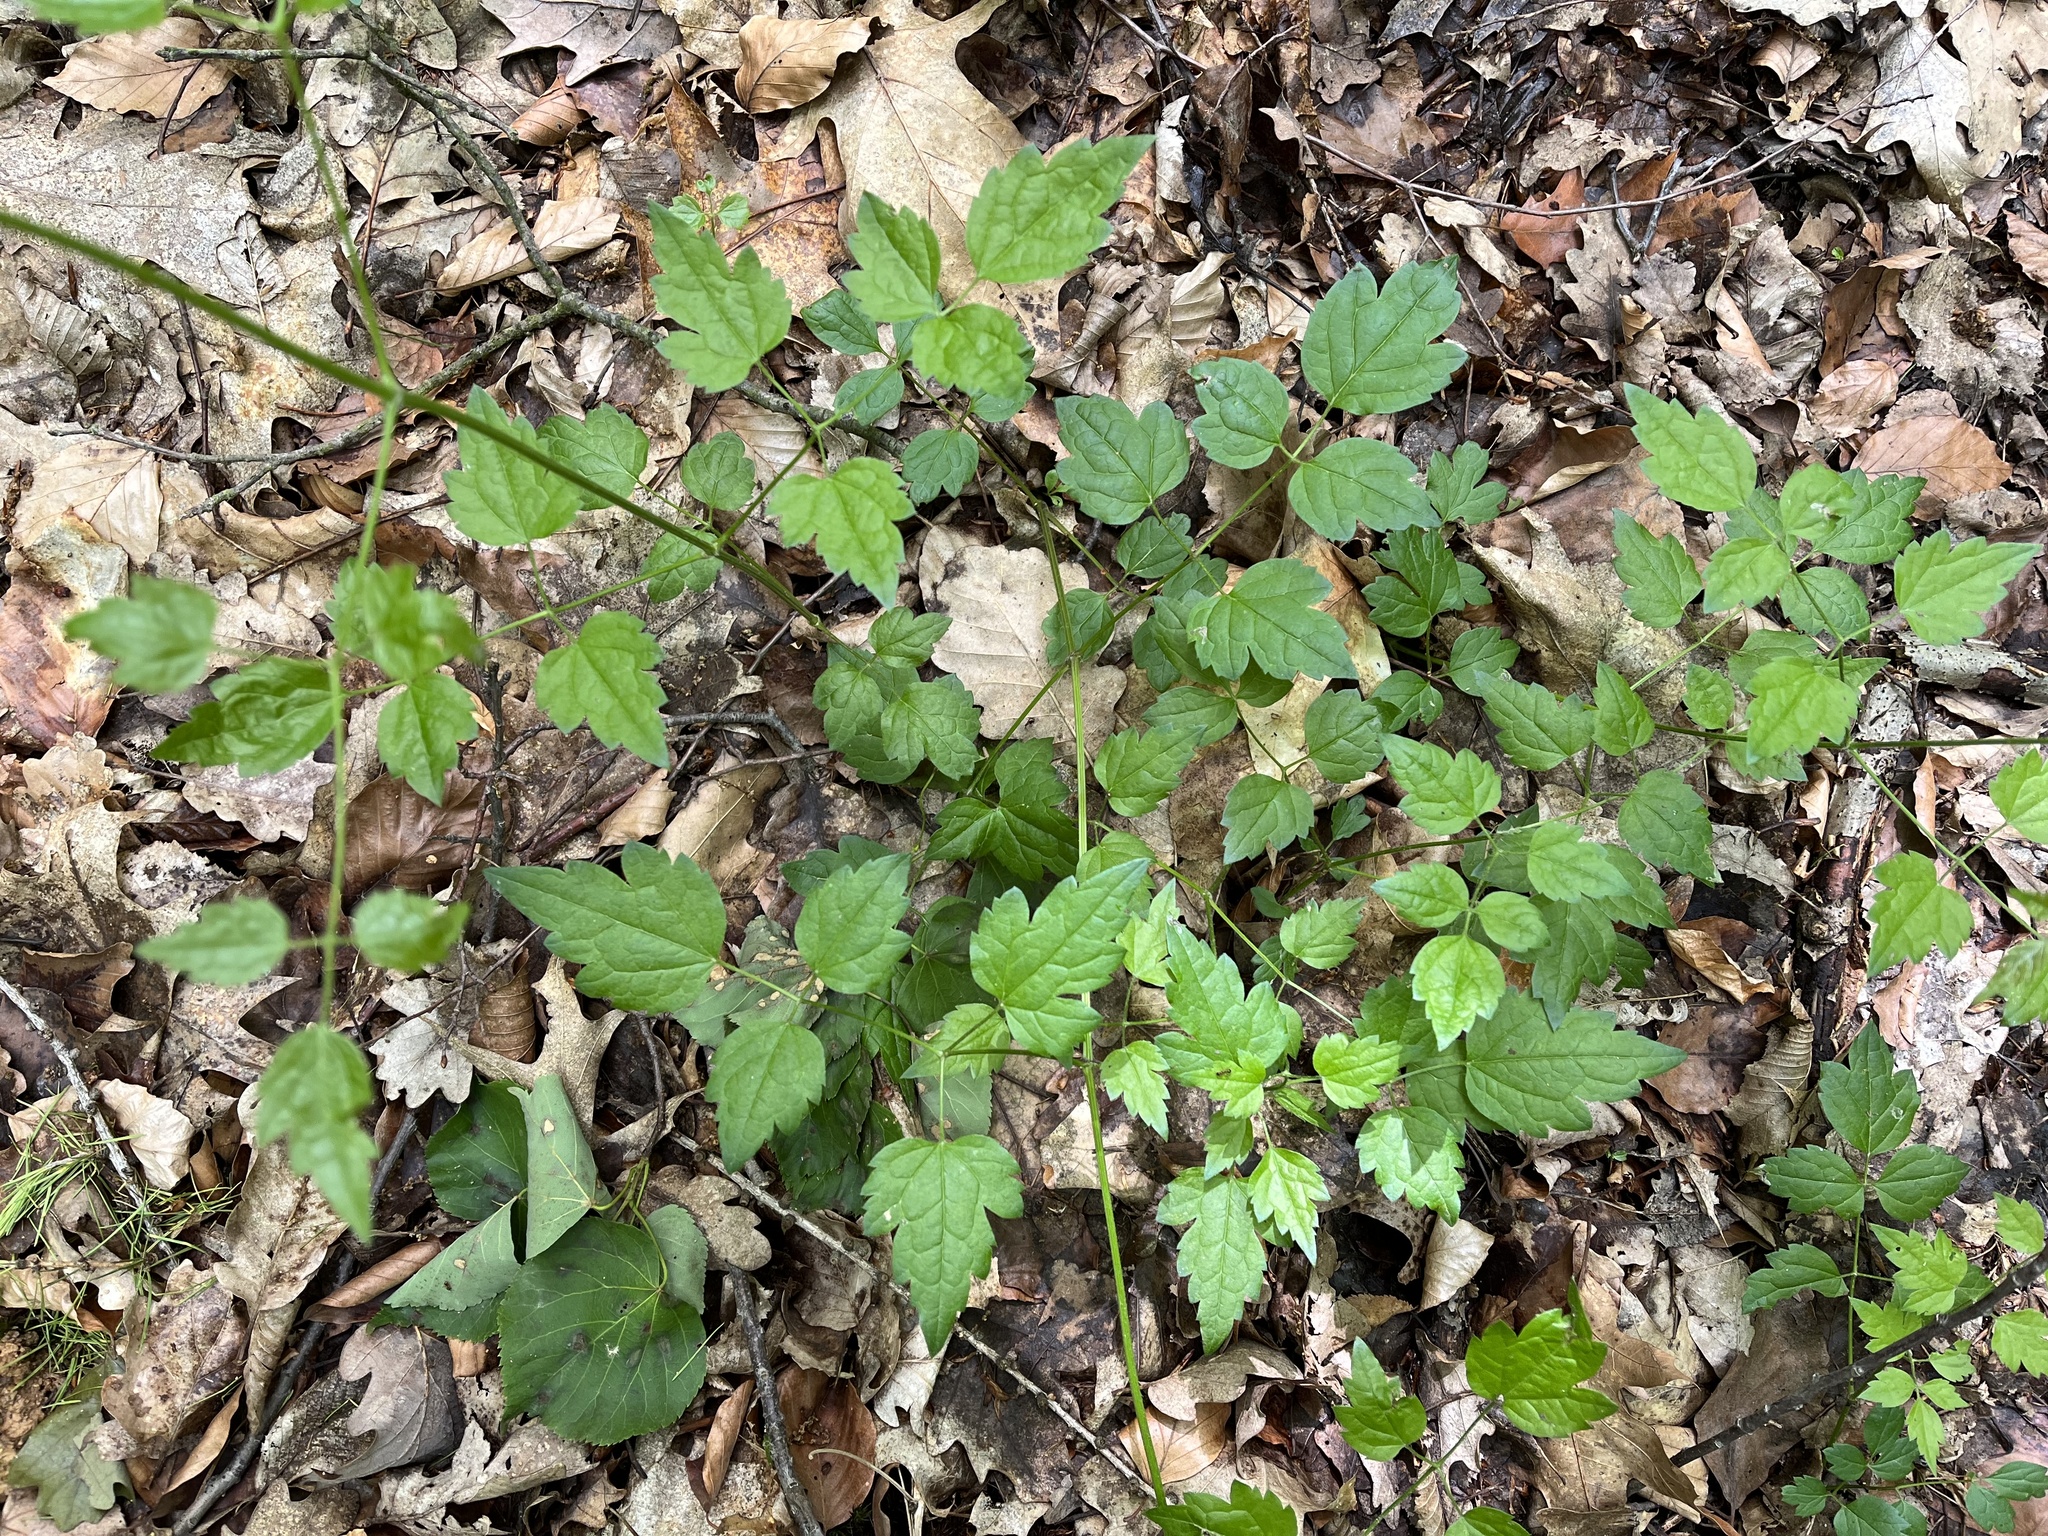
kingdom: Plantae
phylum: Tracheophyta
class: Magnoliopsida
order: Ranunculales
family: Ranunculaceae
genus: Clematis
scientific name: Clematis vitalba
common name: Evergreen clematis
